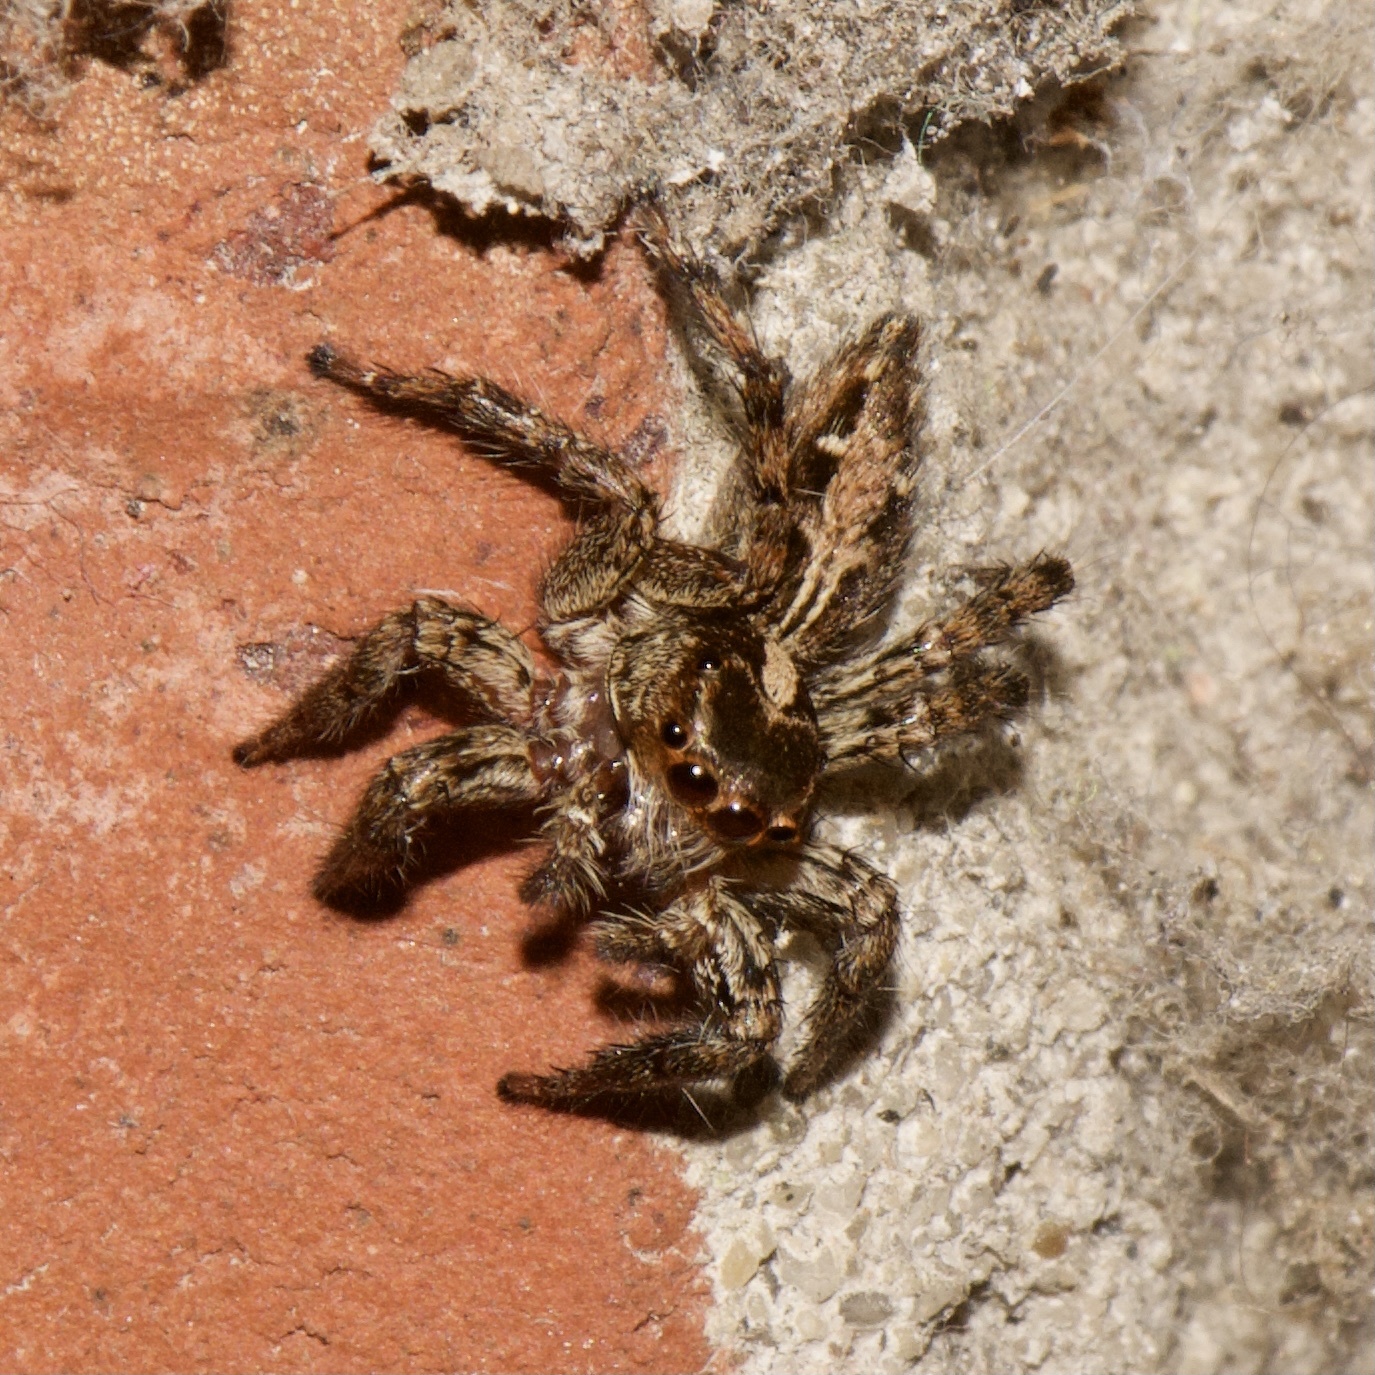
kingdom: Animalia
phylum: Arthropoda
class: Arachnida
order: Araneae
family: Salticidae
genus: Plexippus
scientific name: Plexippus paykulli
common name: Pantropical jumper
